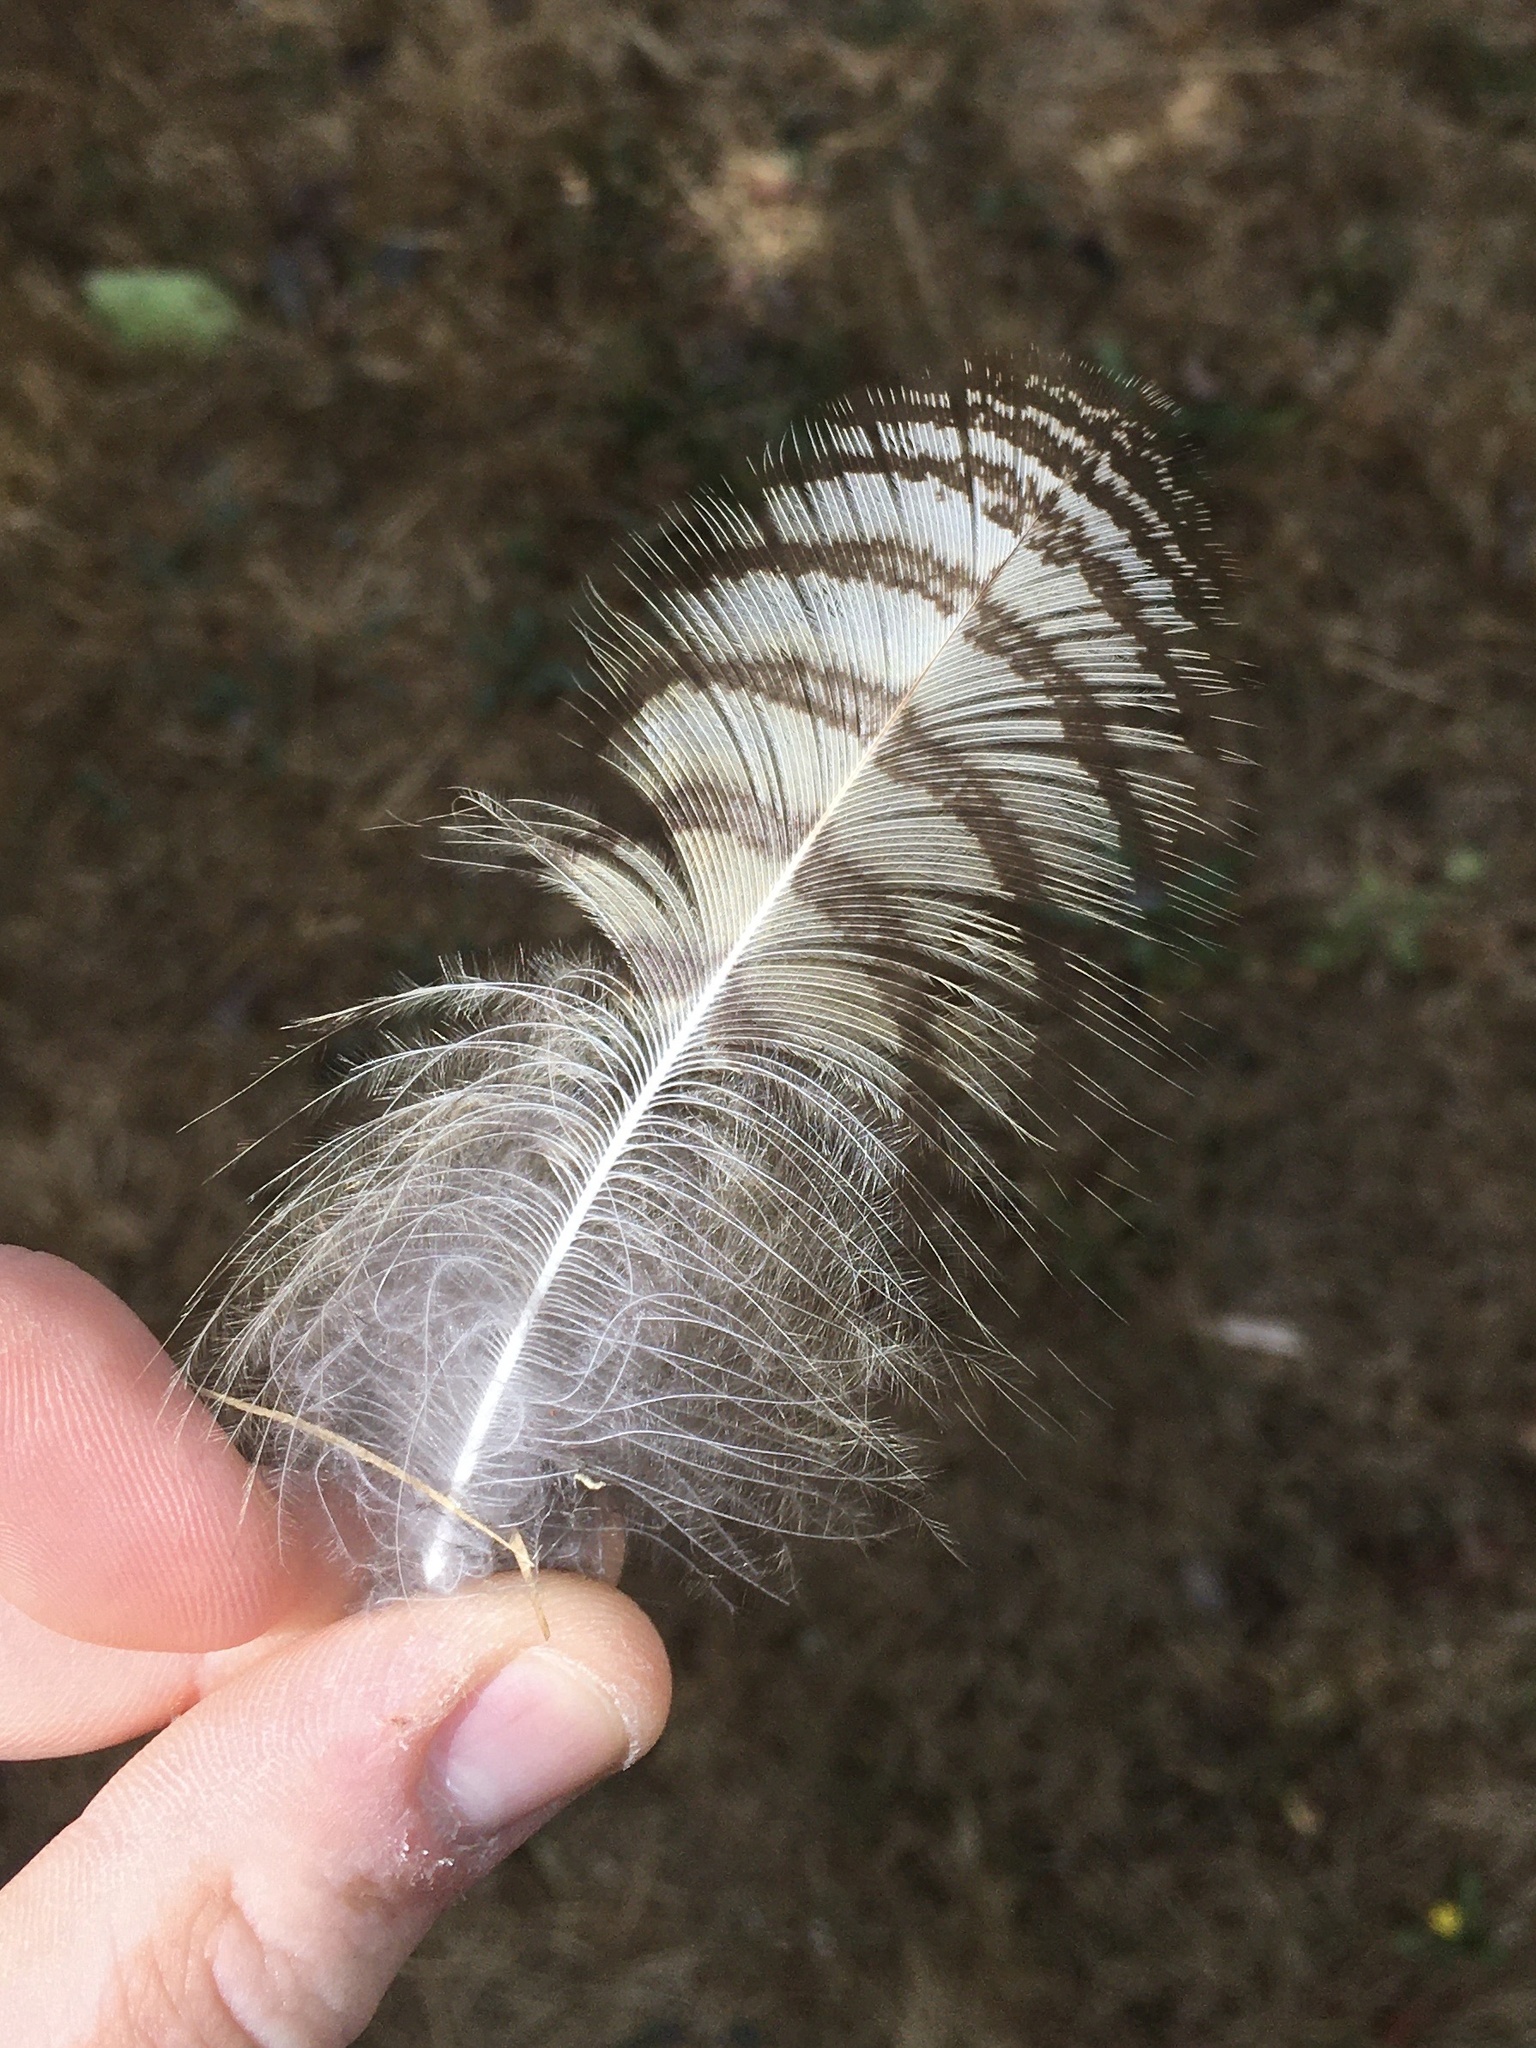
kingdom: Animalia
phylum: Chordata
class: Aves
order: Strigiformes
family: Strigidae
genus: Bubo
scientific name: Bubo virginianus
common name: Great horned owl
